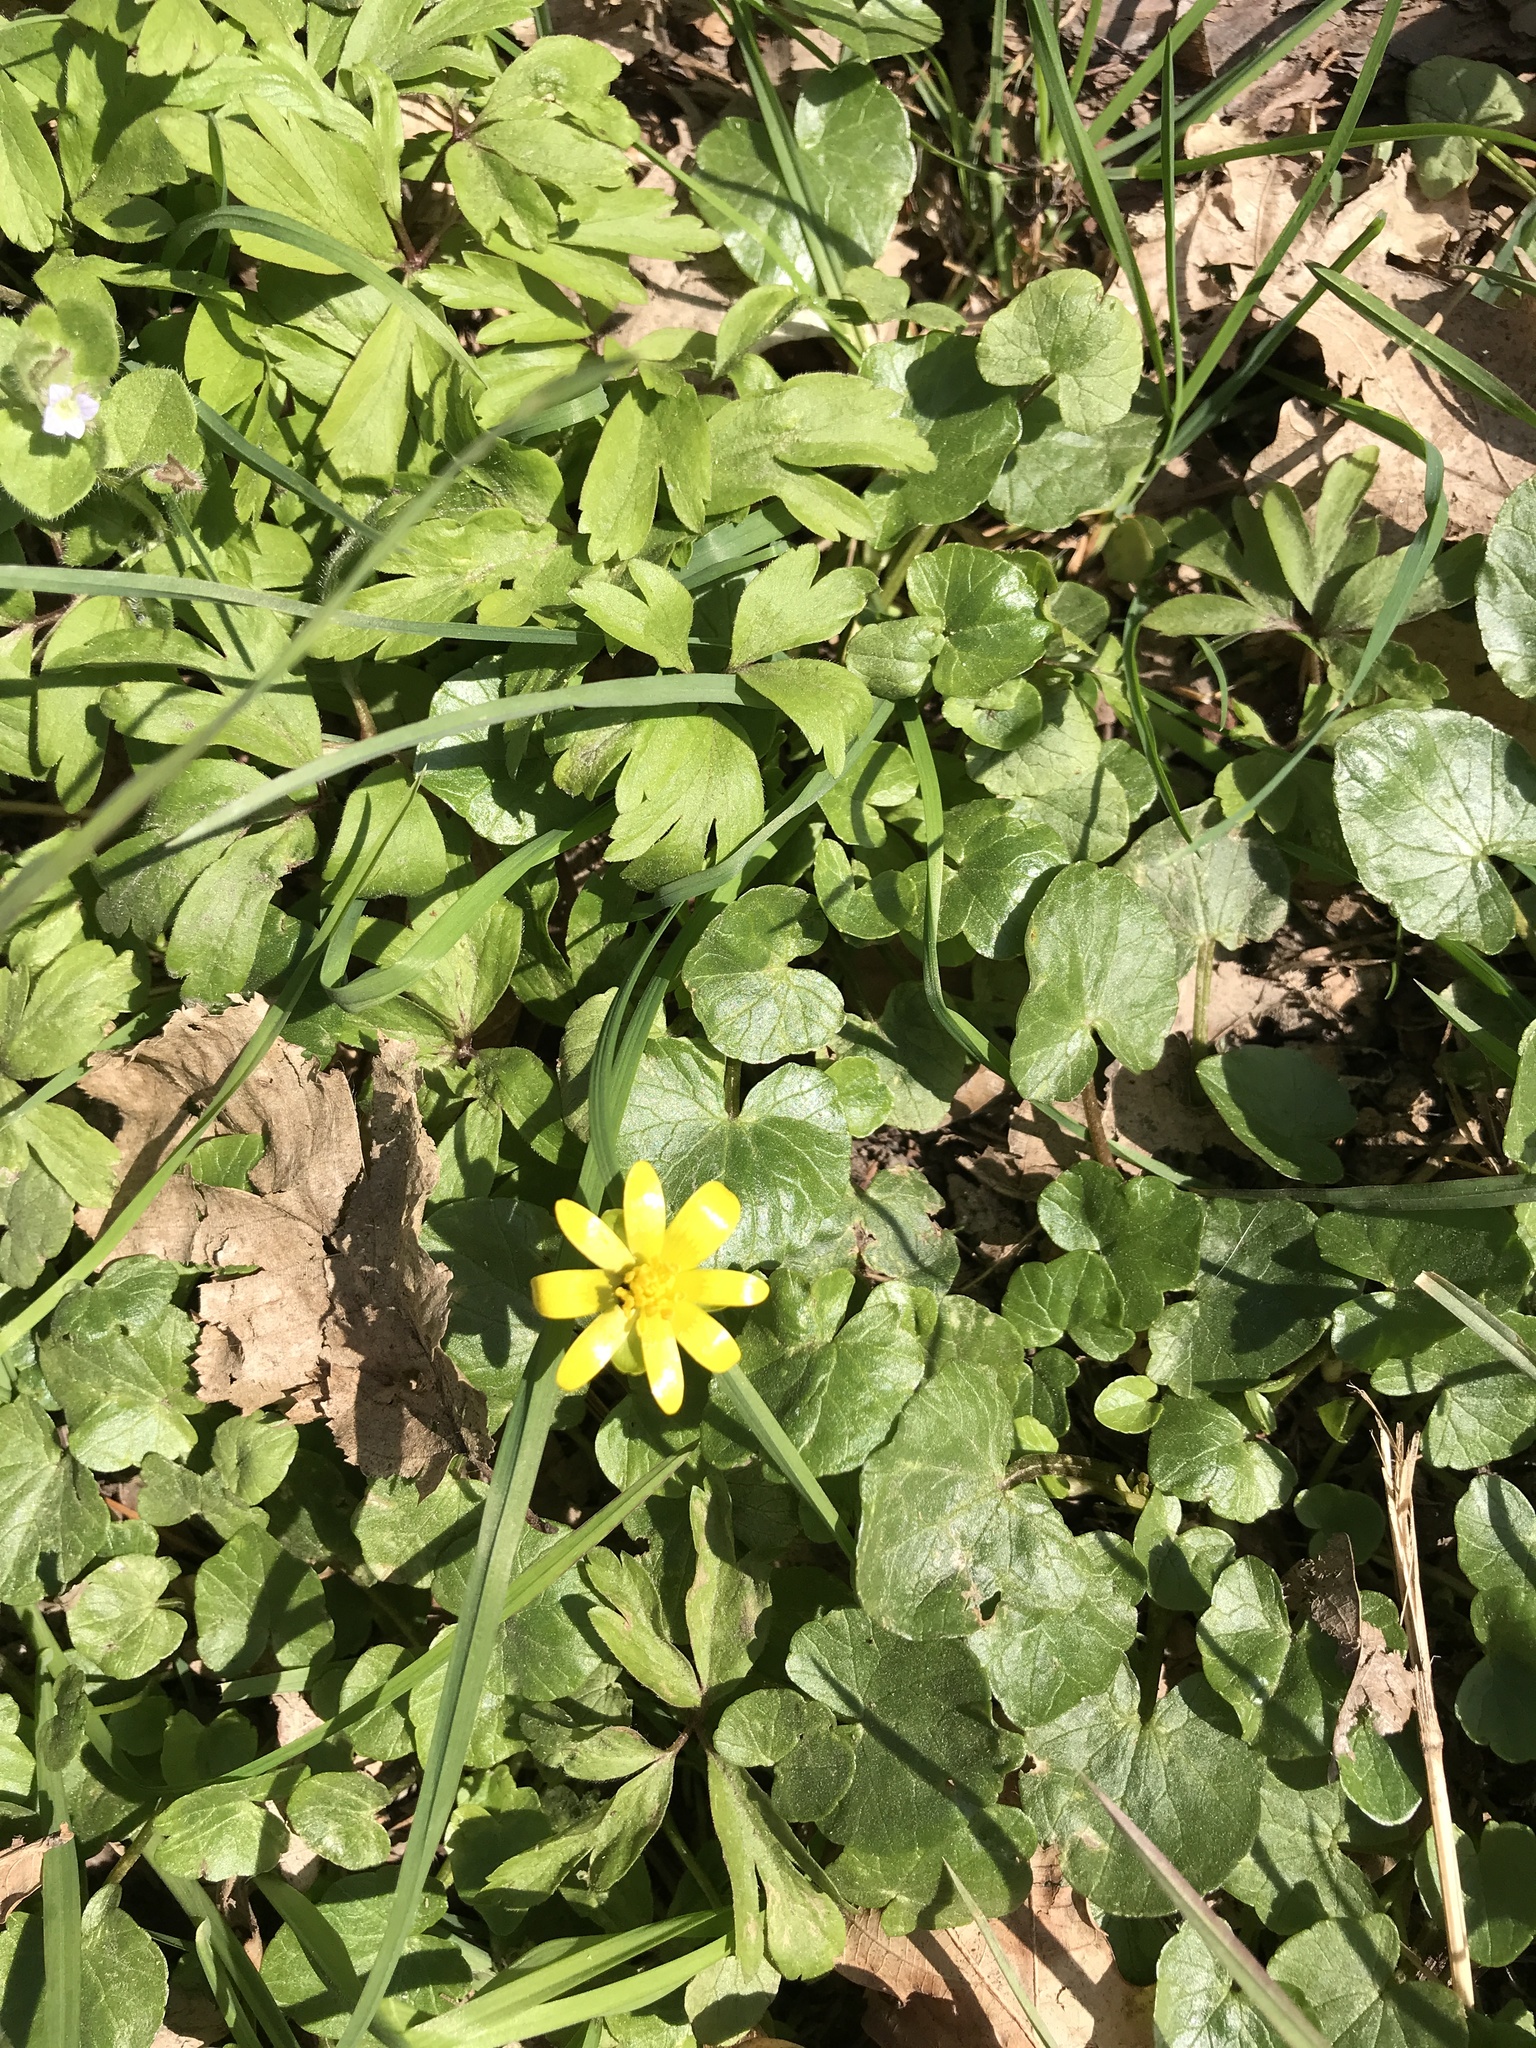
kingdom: Plantae
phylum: Tracheophyta
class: Magnoliopsida
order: Ranunculales
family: Ranunculaceae
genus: Ficaria
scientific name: Ficaria verna
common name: Lesser celandine
